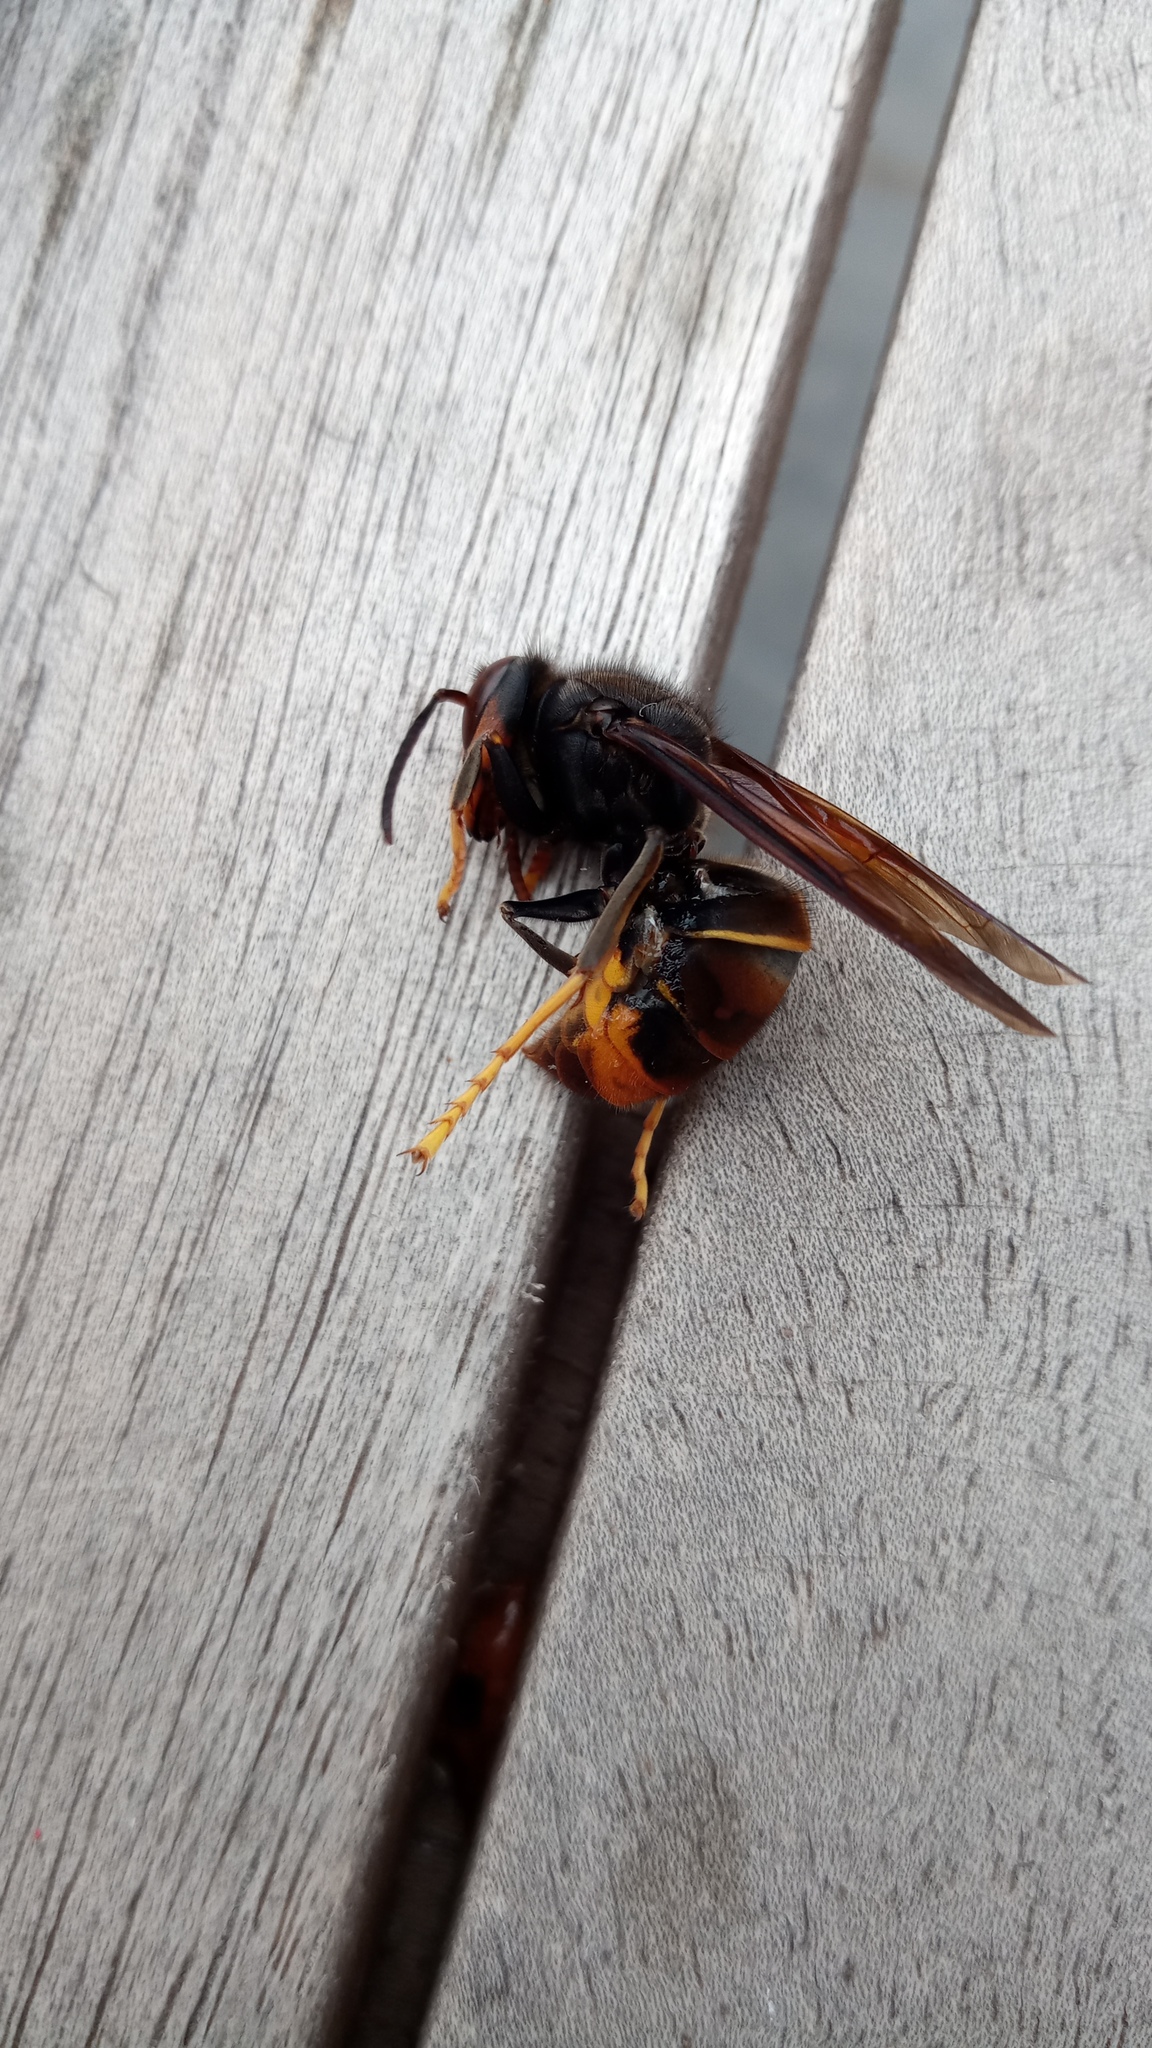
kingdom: Animalia
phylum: Arthropoda
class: Insecta
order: Hymenoptera
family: Vespidae
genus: Vespa
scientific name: Vespa velutina
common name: Asian hornet
